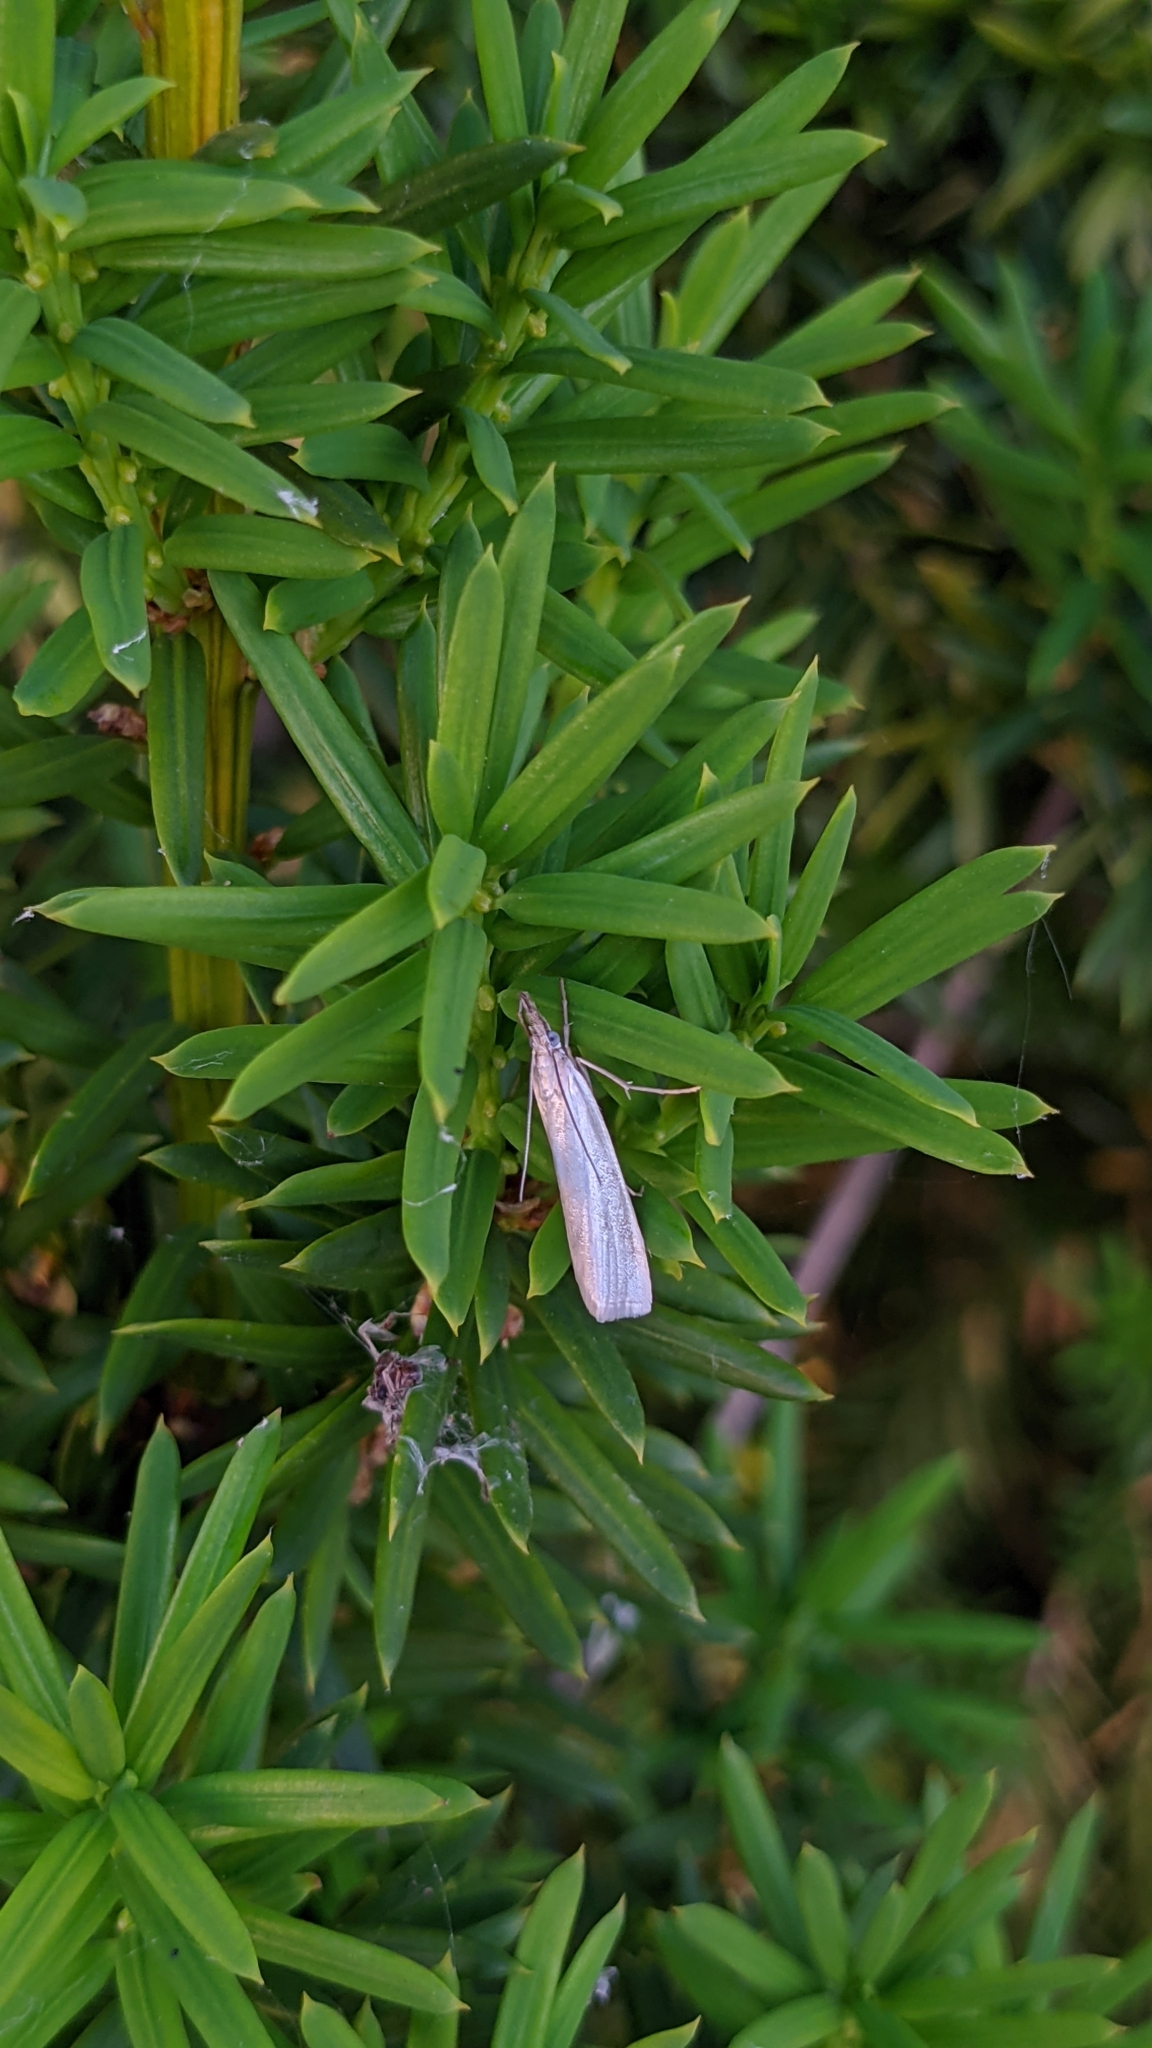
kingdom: Animalia
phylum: Arthropoda
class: Insecta
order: Lepidoptera
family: Crambidae
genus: Crambus
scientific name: Crambus perlellus
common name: Yellow satin veneer
